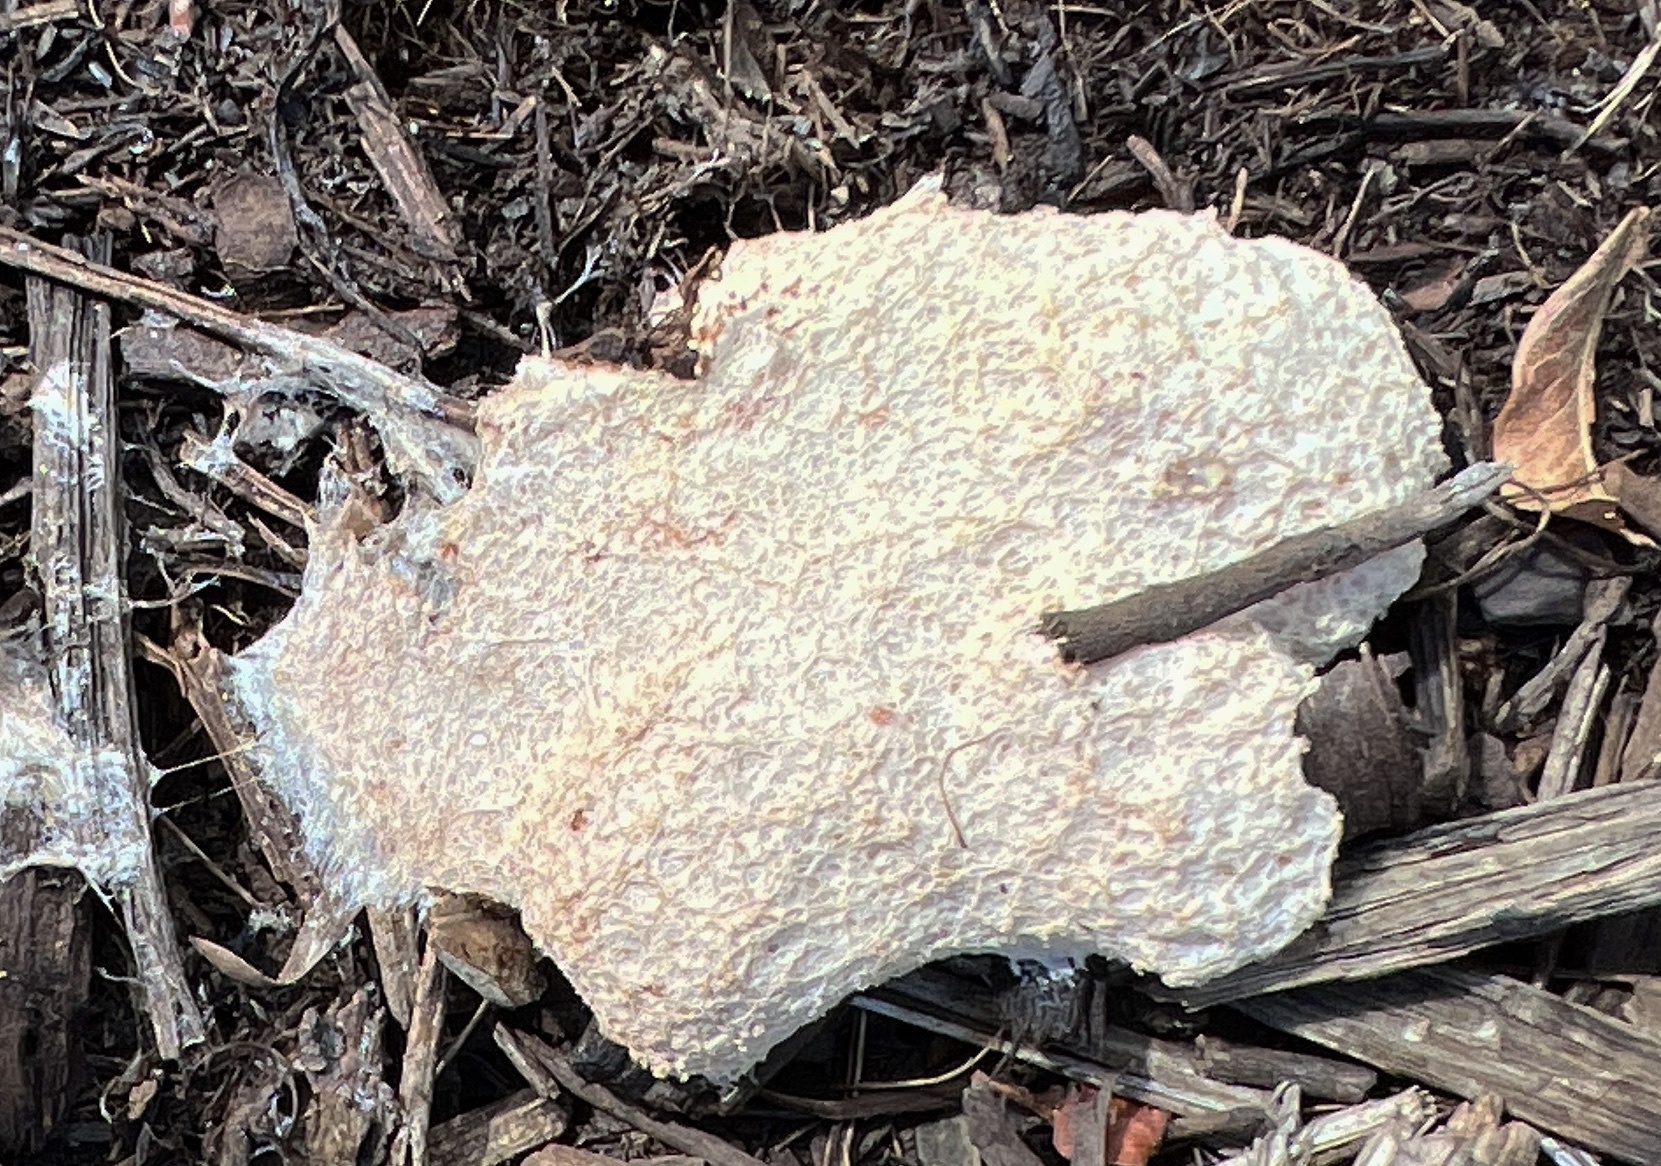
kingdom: Protozoa
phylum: Mycetozoa
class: Myxomycetes
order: Physarales
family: Physaraceae
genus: Fuligo
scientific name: Fuligo septica
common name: Dog vomit slime mold
